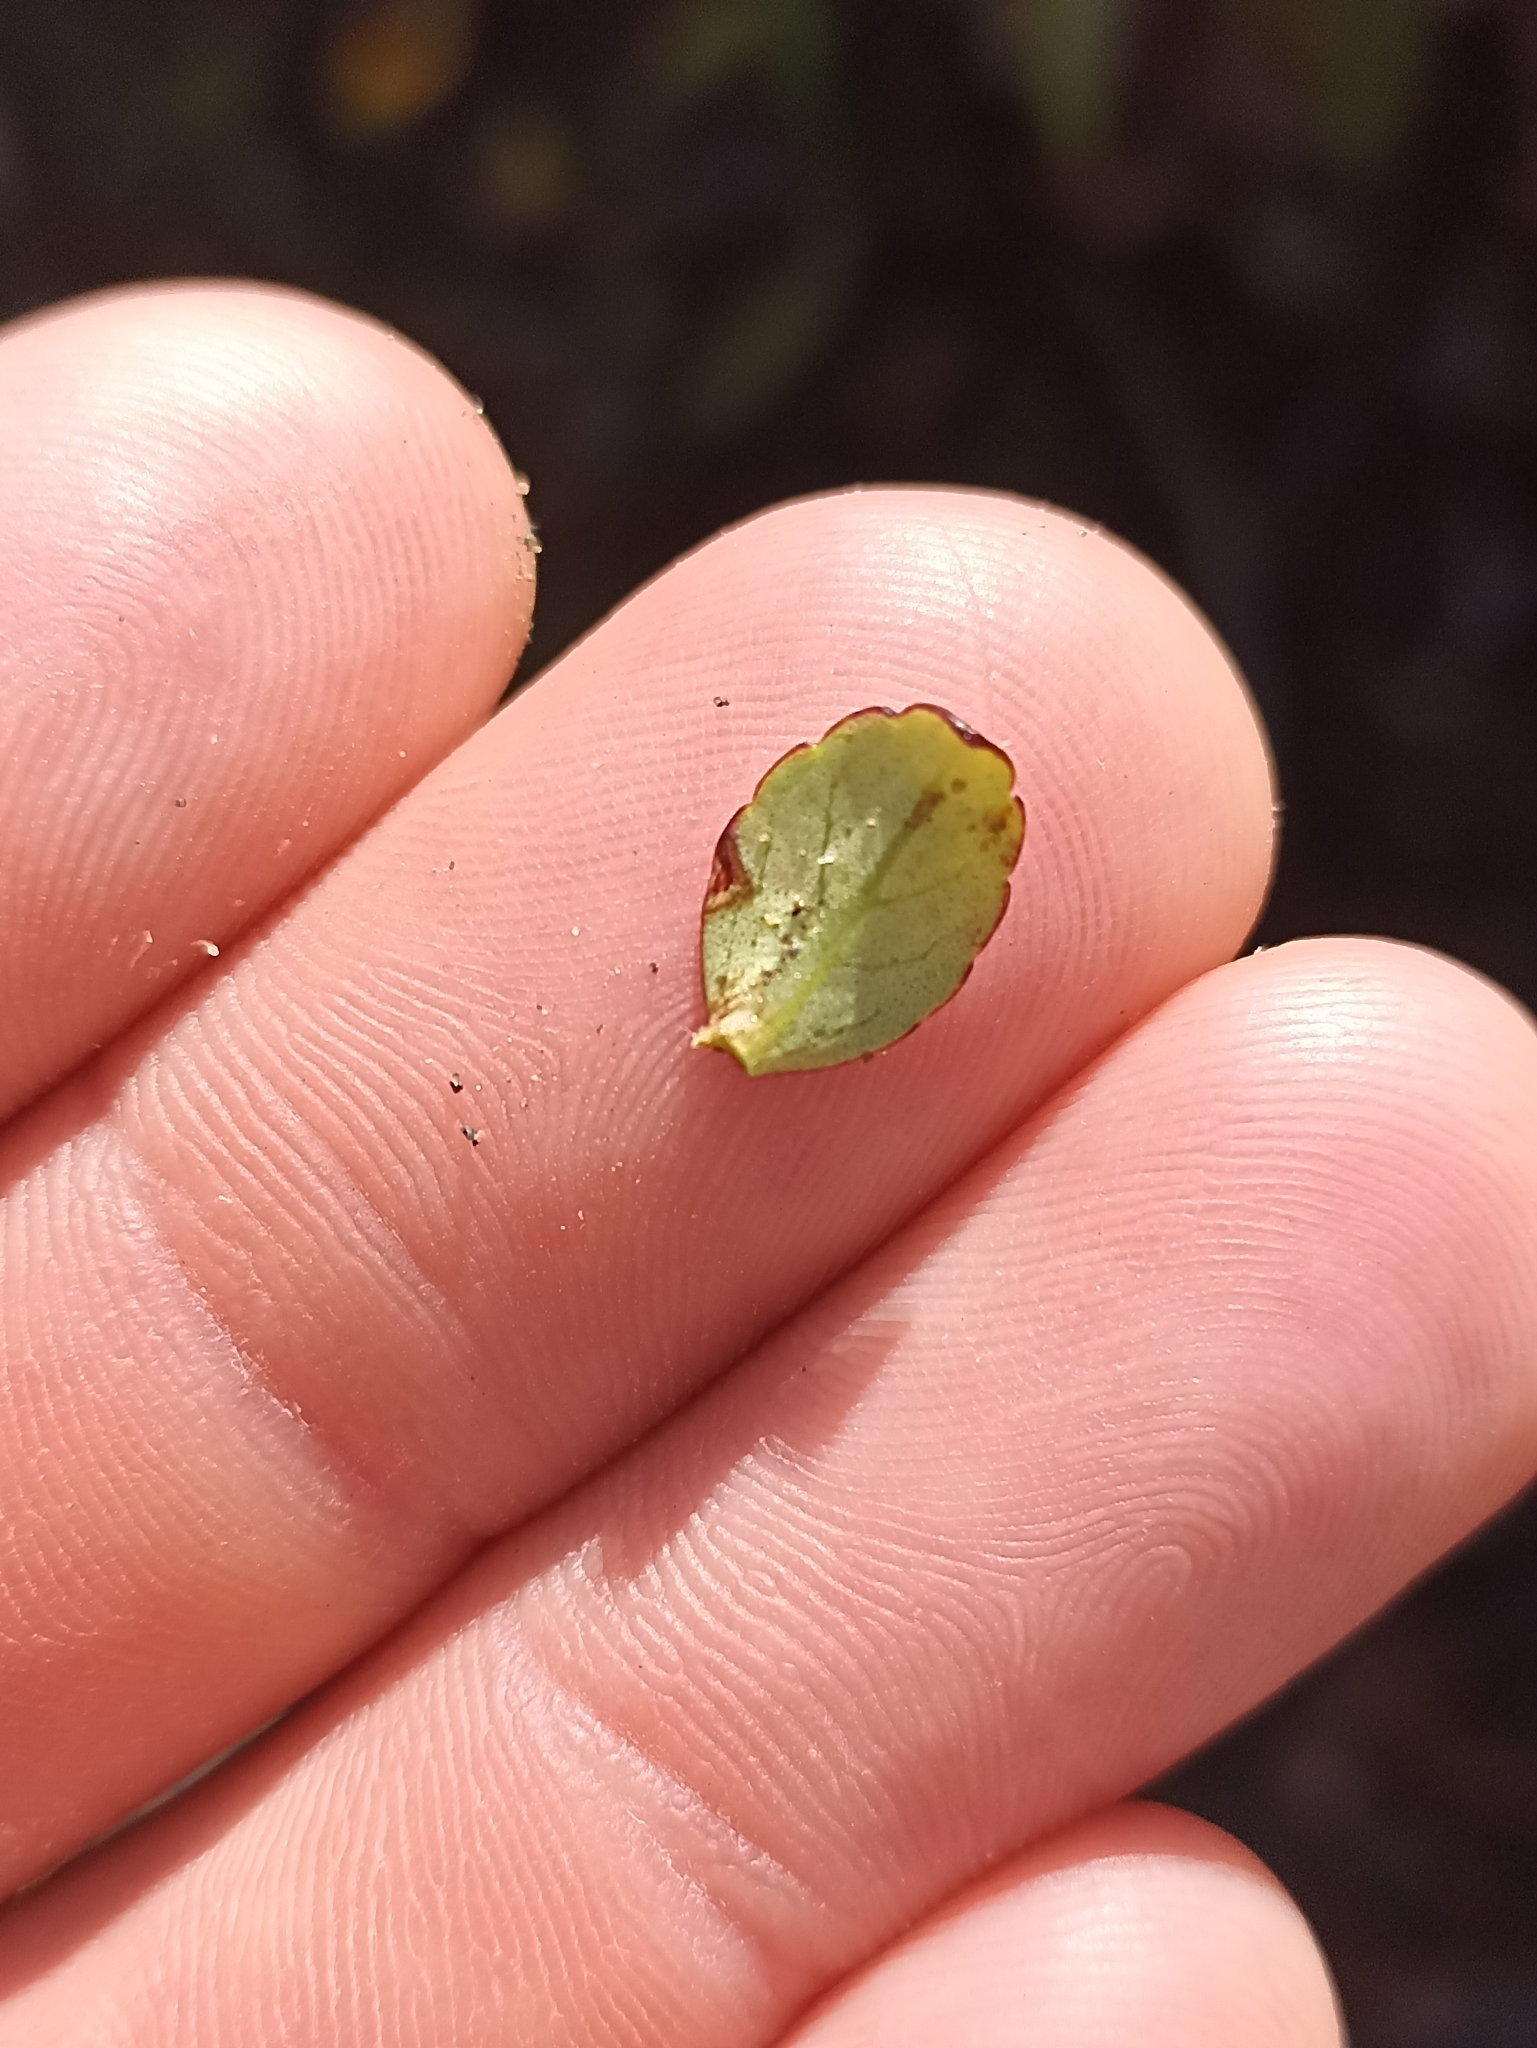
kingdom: Plantae
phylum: Tracheophyta
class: Magnoliopsida
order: Lamiales
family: Plantaginaceae
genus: Ourisia
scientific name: Ourisia vulcanica
